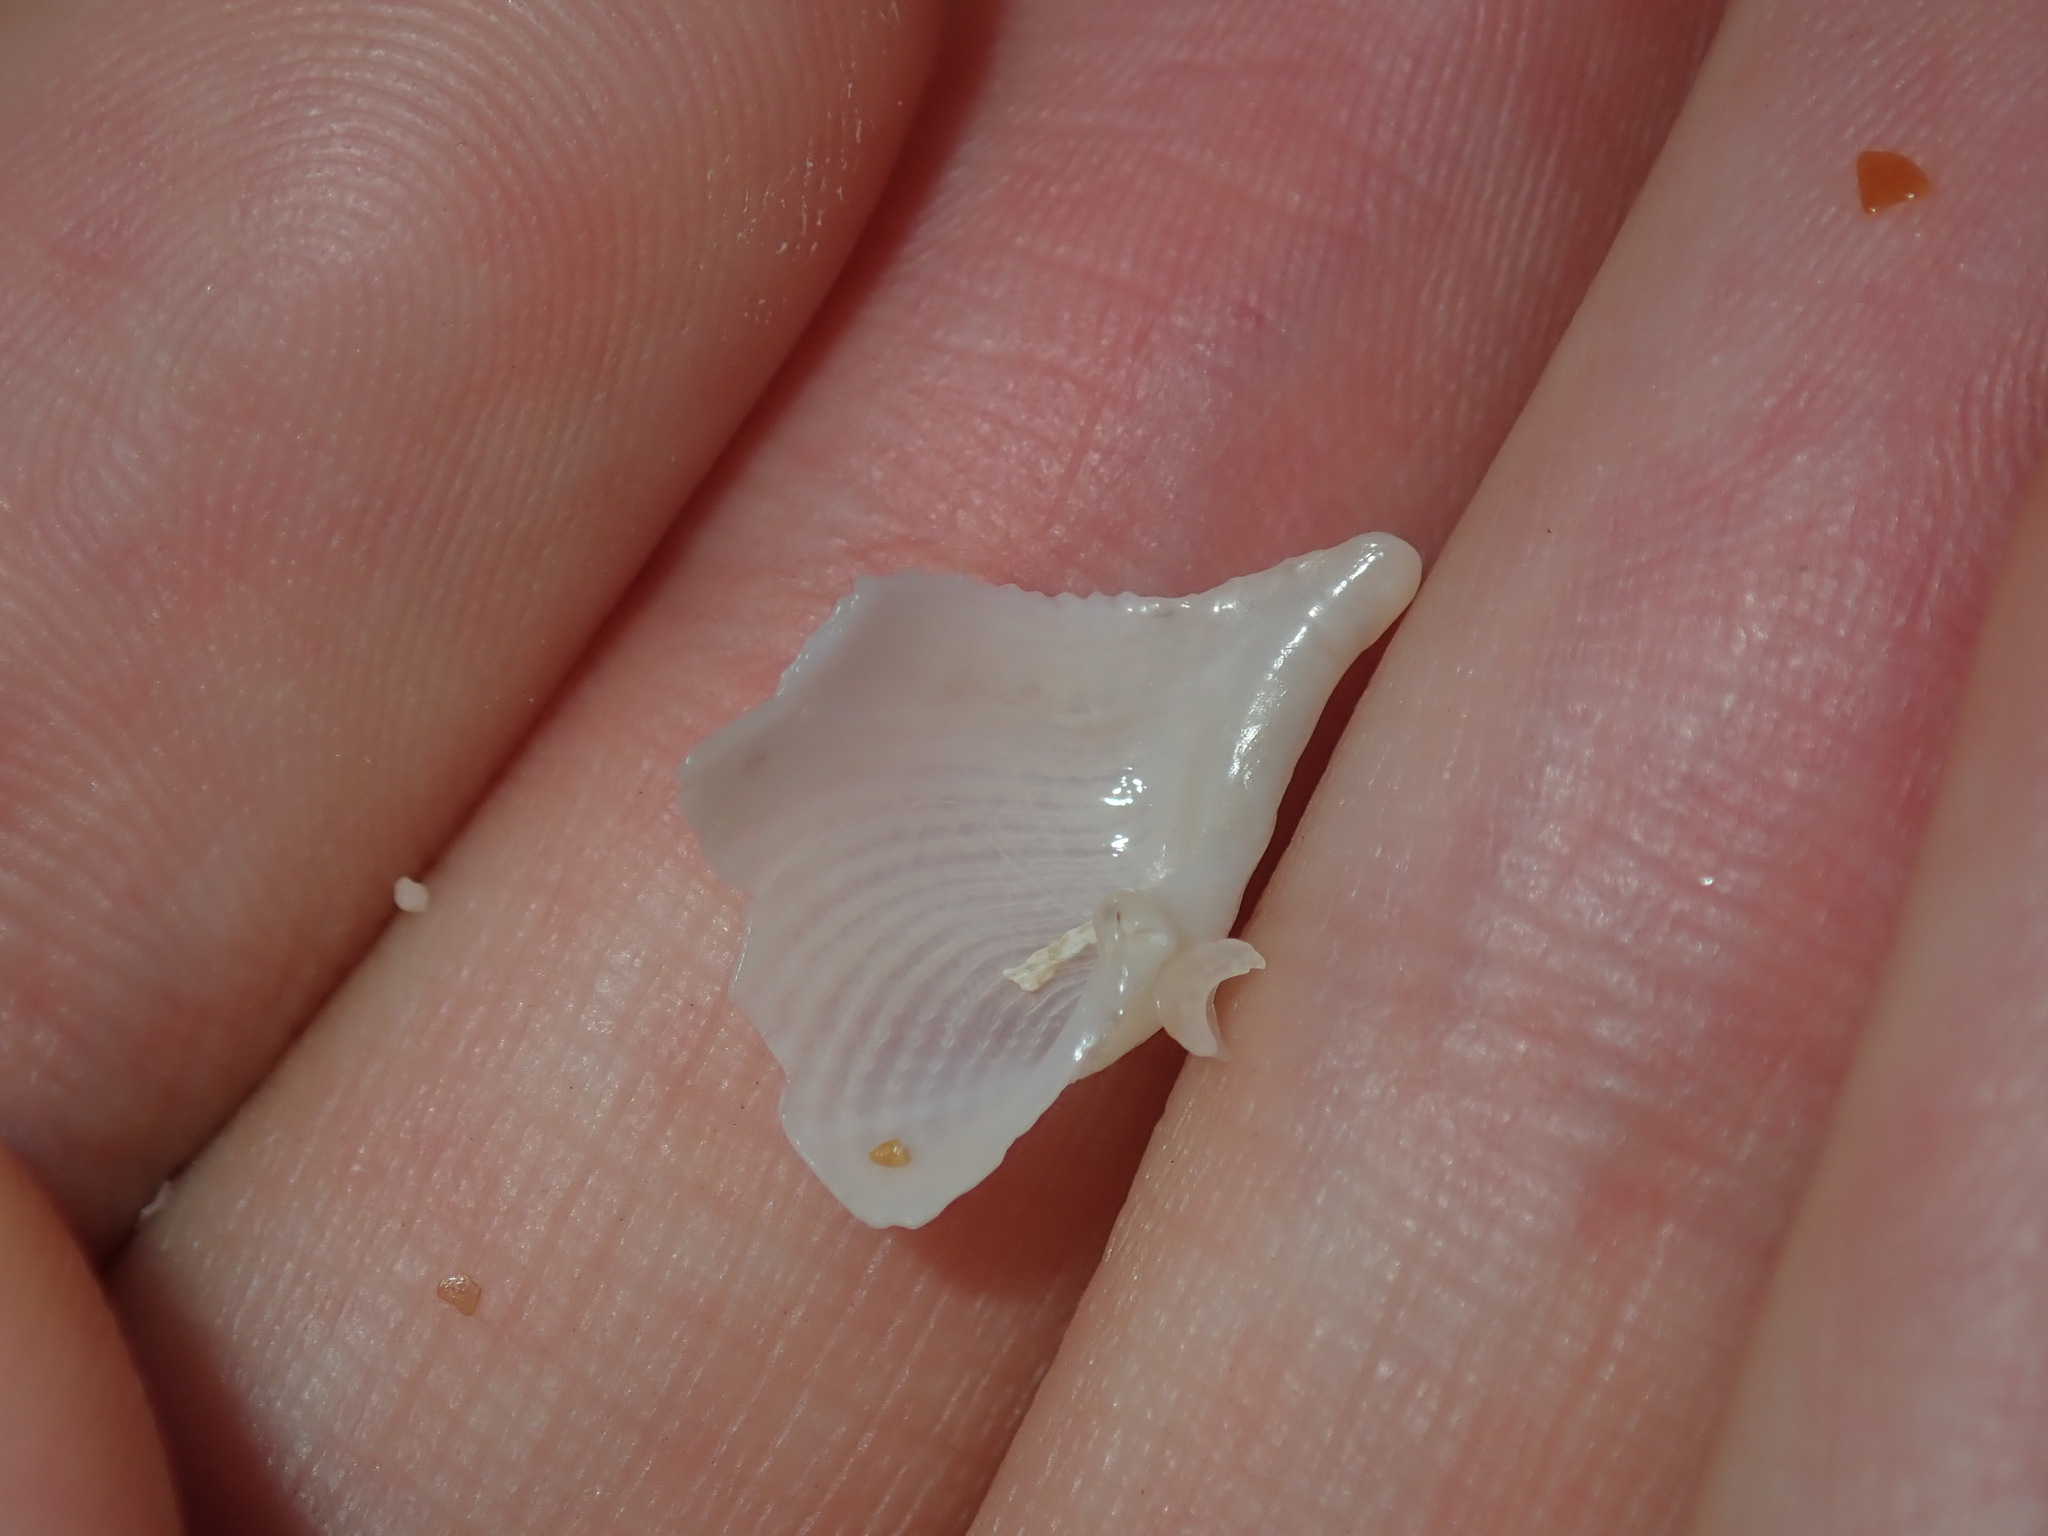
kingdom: Animalia
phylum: Mollusca
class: Bivalvia
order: Myida
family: Pholadidae
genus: Barnea
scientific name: Barnea obturamentum
